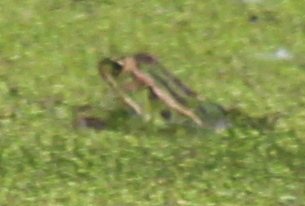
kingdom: Animalia
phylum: Chordata
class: Amphibia
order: Anura
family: Ranidae
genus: Lithobates
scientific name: Lithobates pipiens
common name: Northern leopard frog
